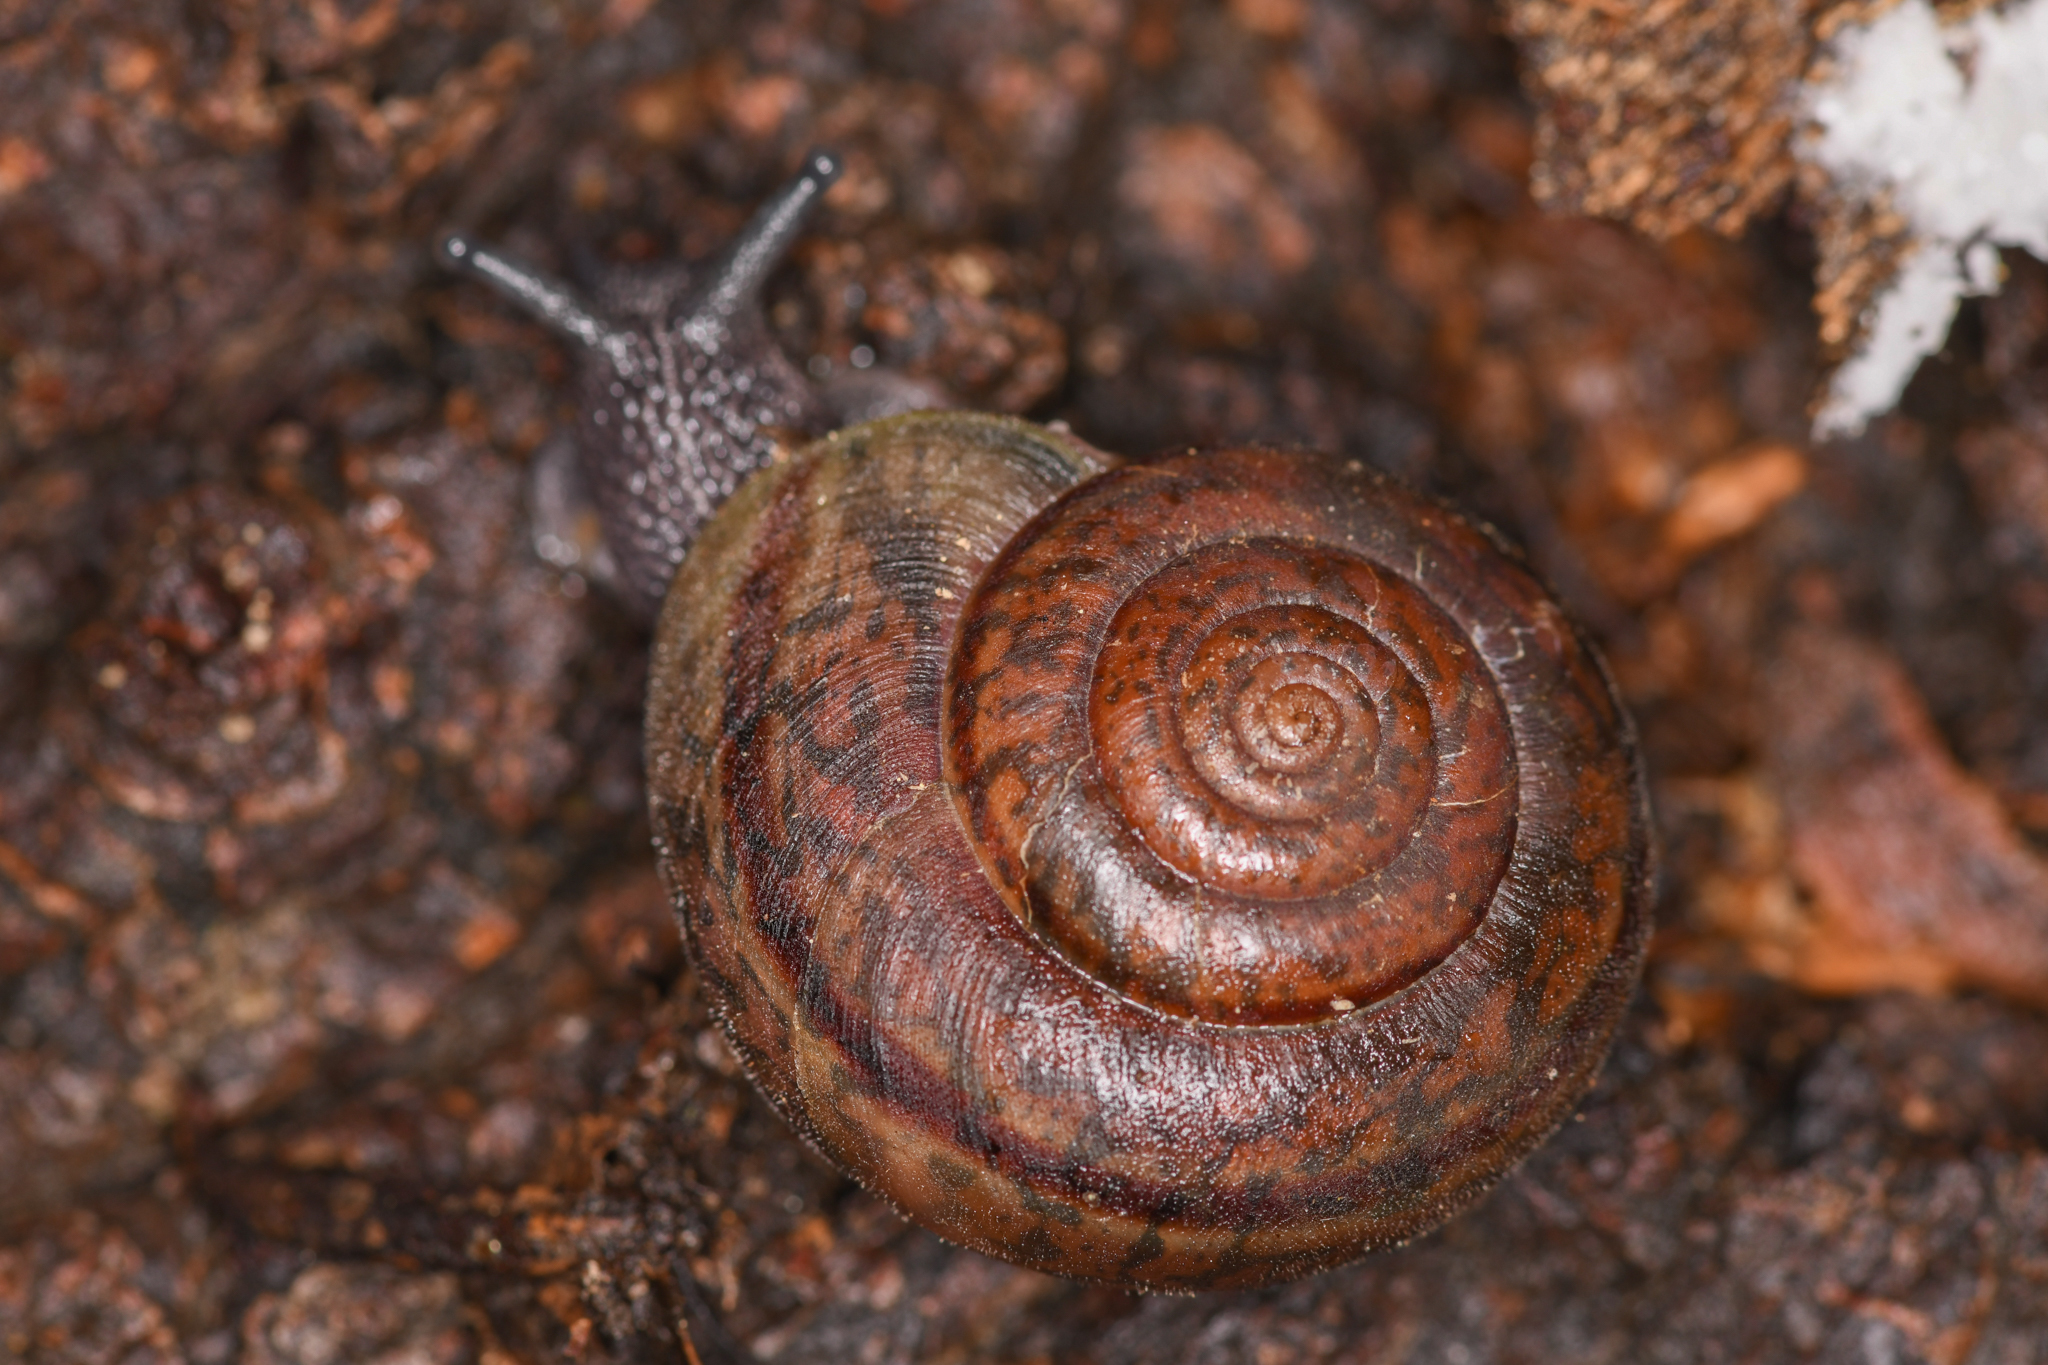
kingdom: Animalia
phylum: Mollusca
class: Gastropoda
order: Stylommatophora
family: Xanthonychidae
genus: Rothelix
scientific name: Rothelix lowei
